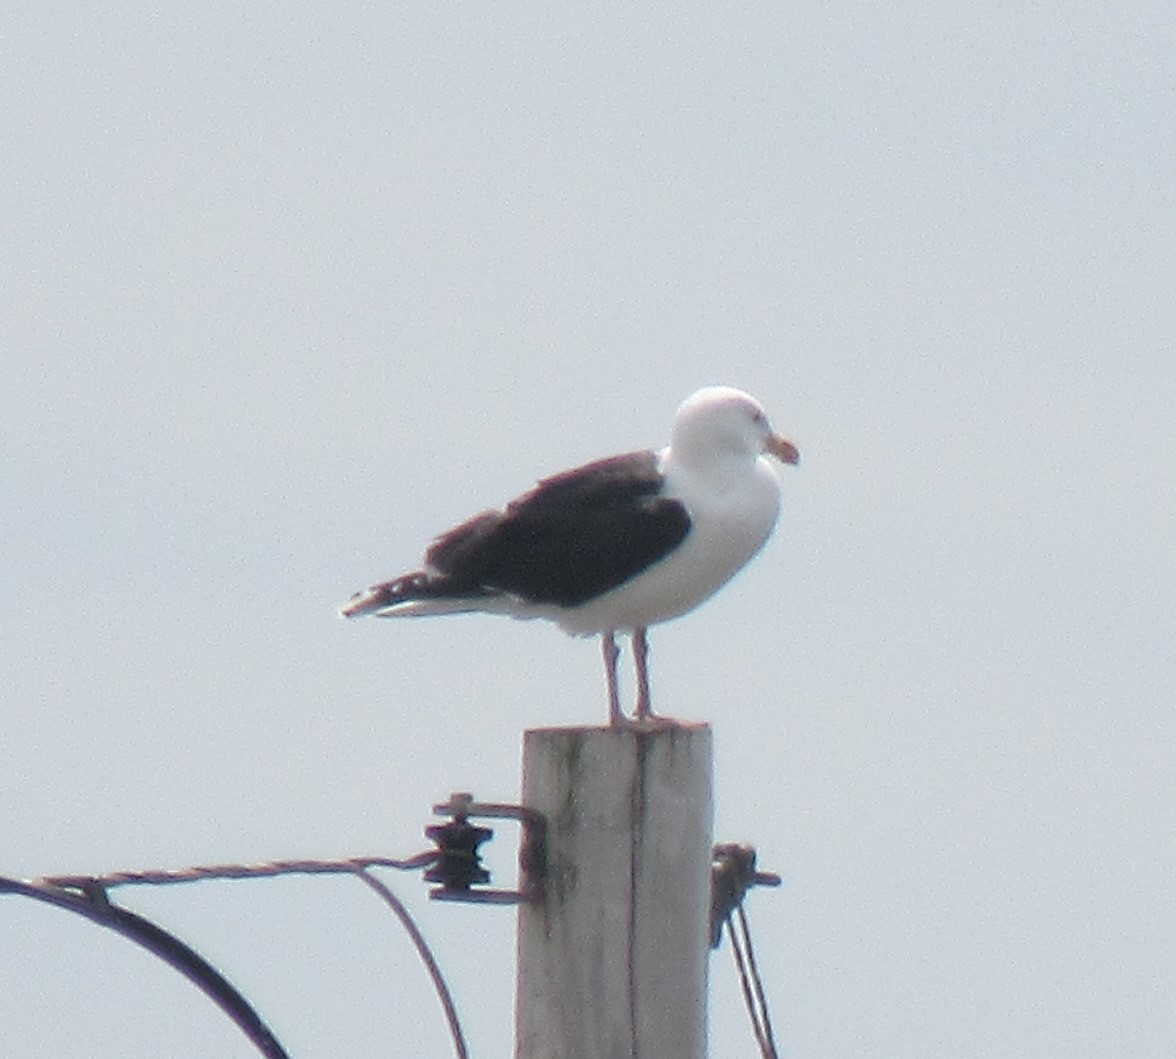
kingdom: Animalia
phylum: Chordata
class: Aves
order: Charadriiformes
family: Laridae
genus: Larus
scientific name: Larus marinus
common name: Great black-backed gull
